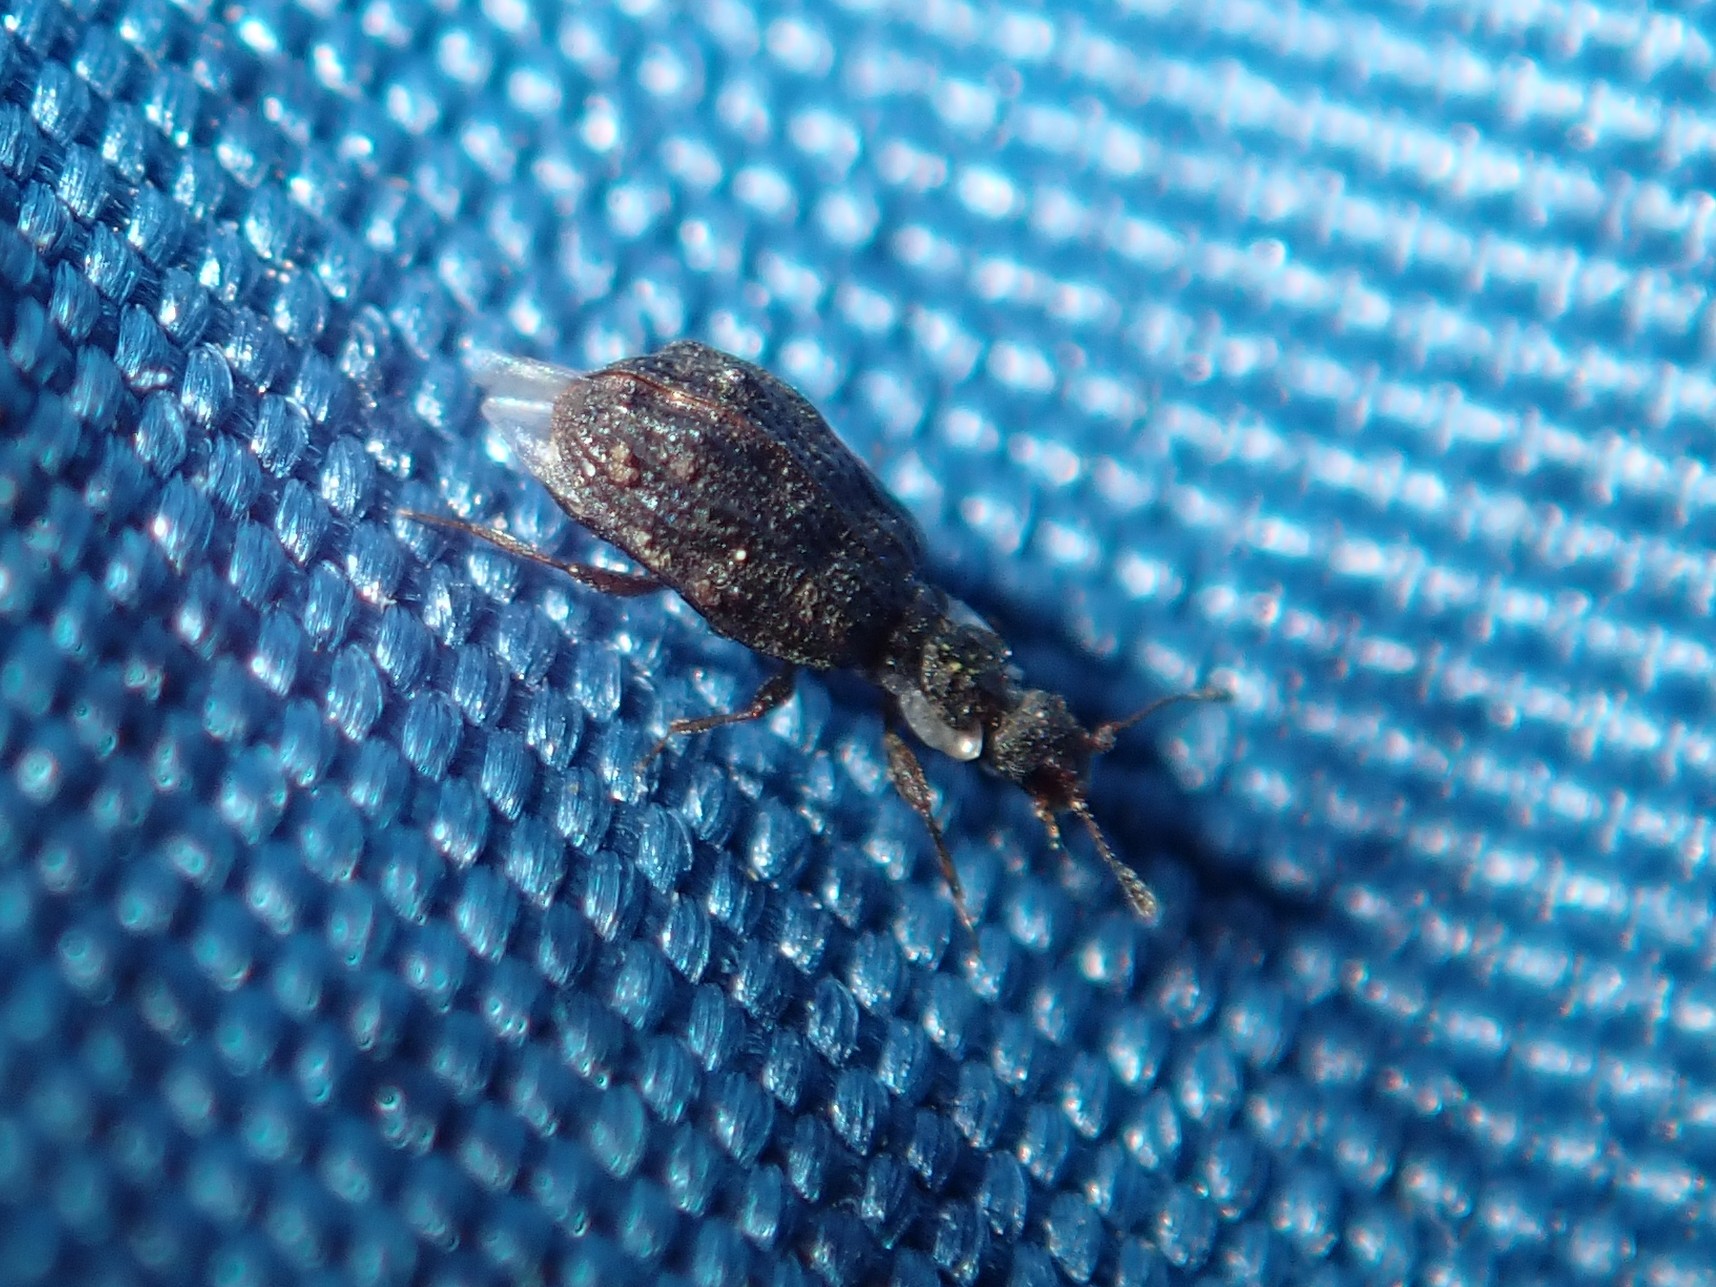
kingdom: Animalia
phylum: Arthropoda
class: Insecta
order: Coleoptera
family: Latridiidae
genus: Cartodere
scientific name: Cartodere nodifer
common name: Humpbacked minute scavenger beetle
